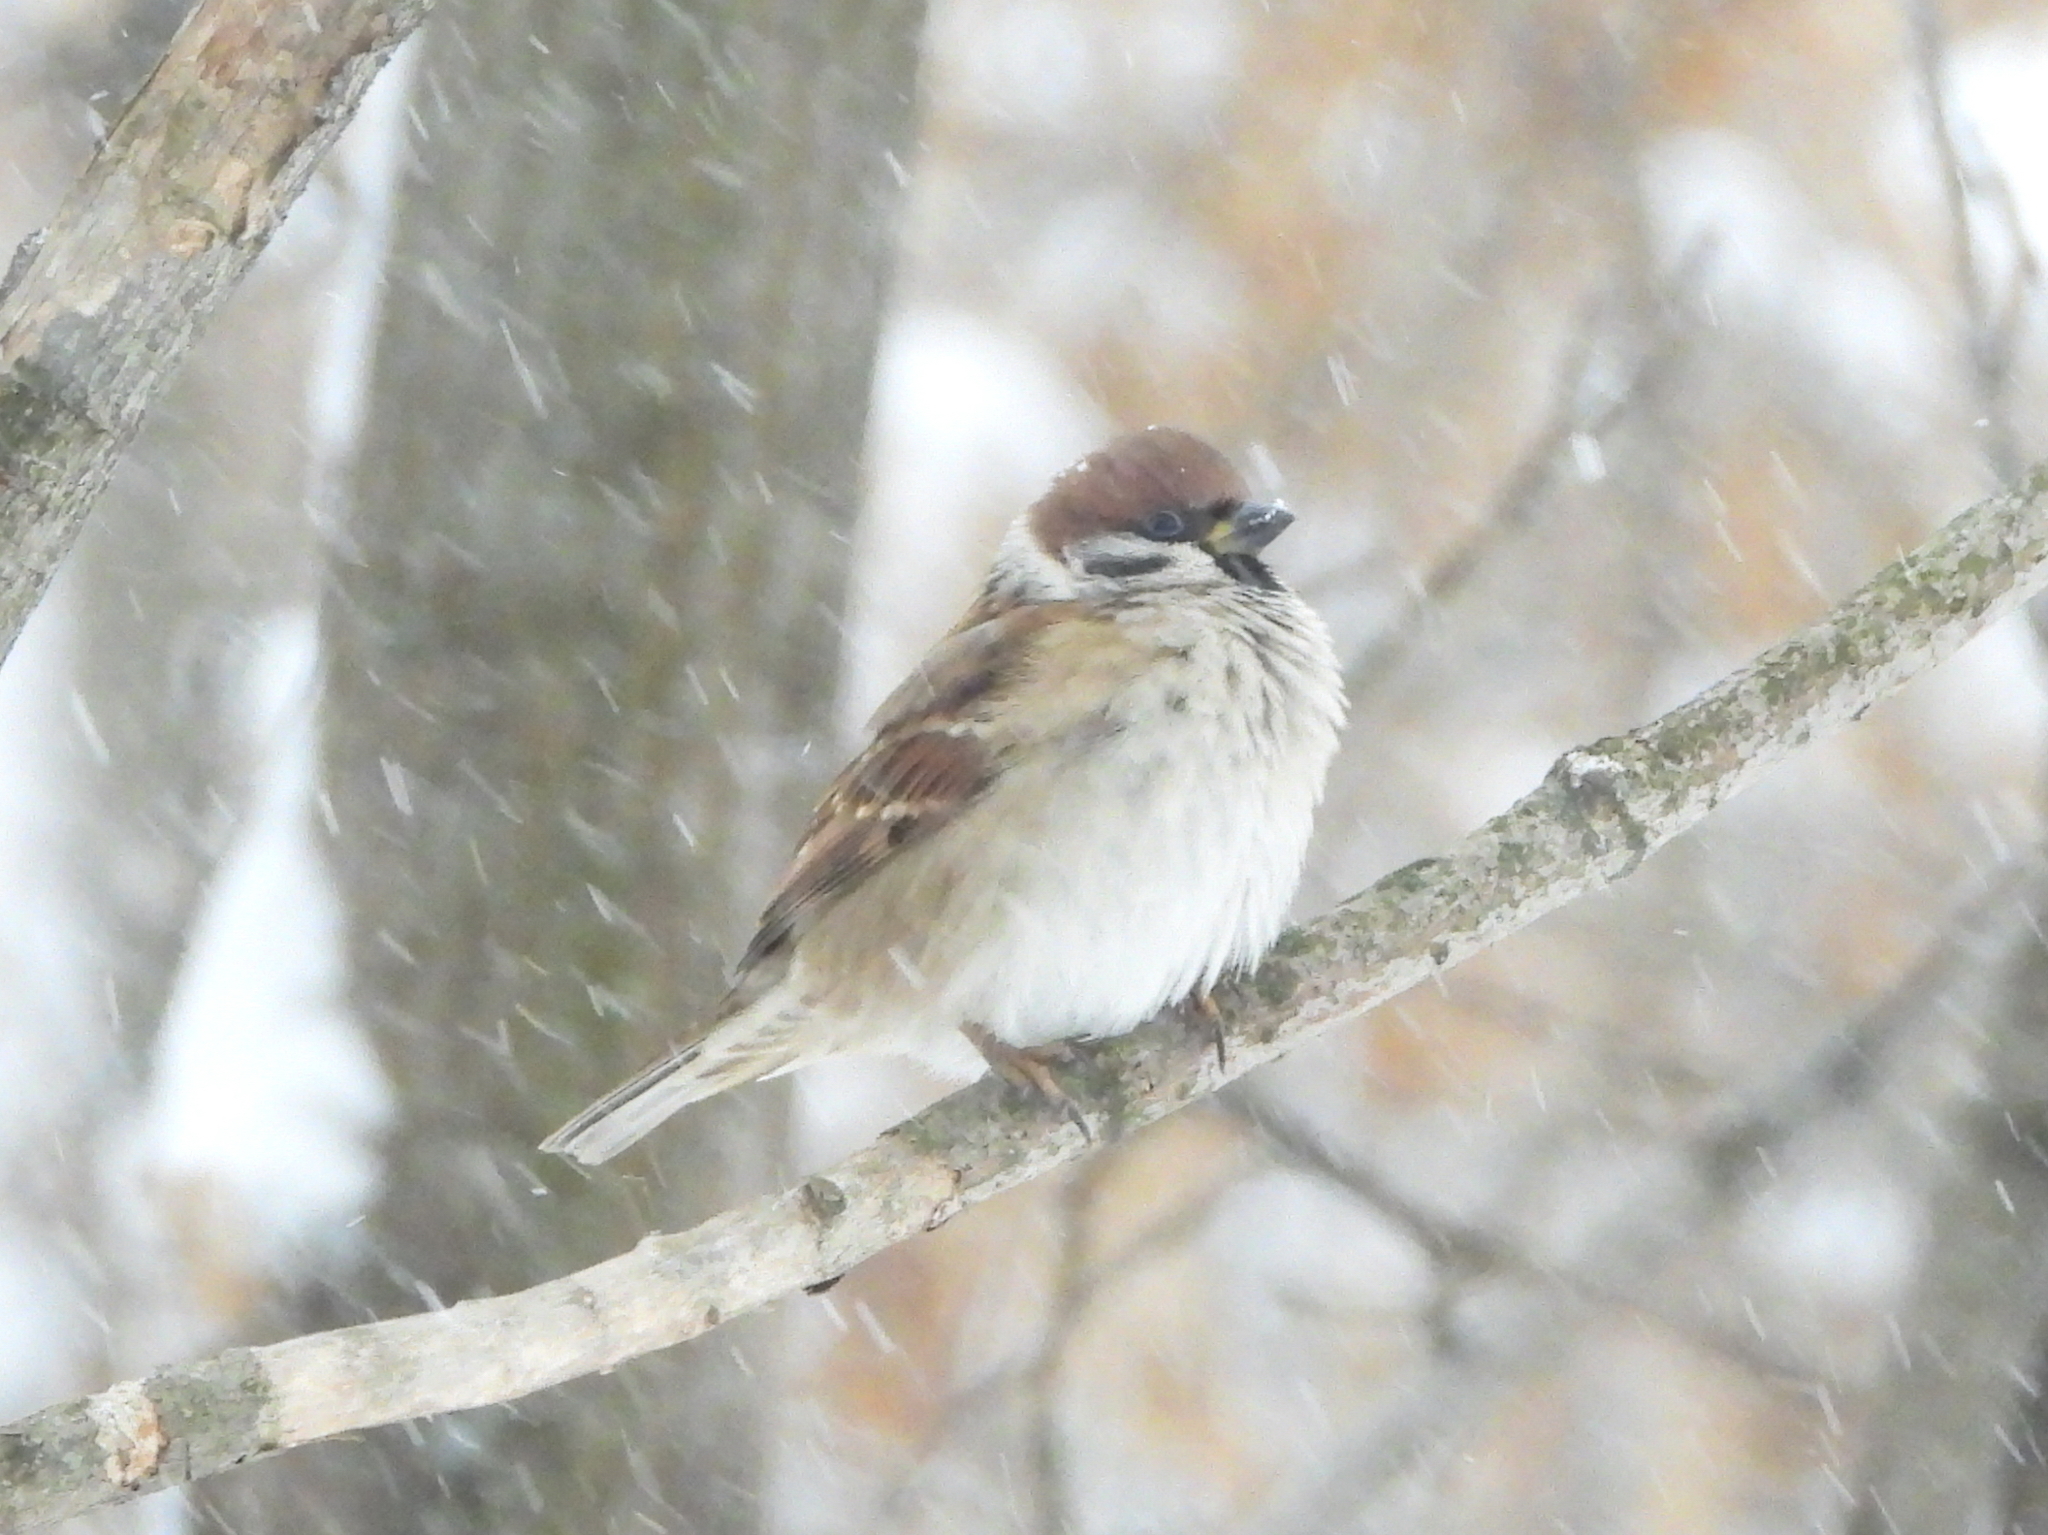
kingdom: Animalia
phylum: Chordata
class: Aves
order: Passeriformes
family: Passeridae
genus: Passer
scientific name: Passer montanus
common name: Eurasian tree sparrow
